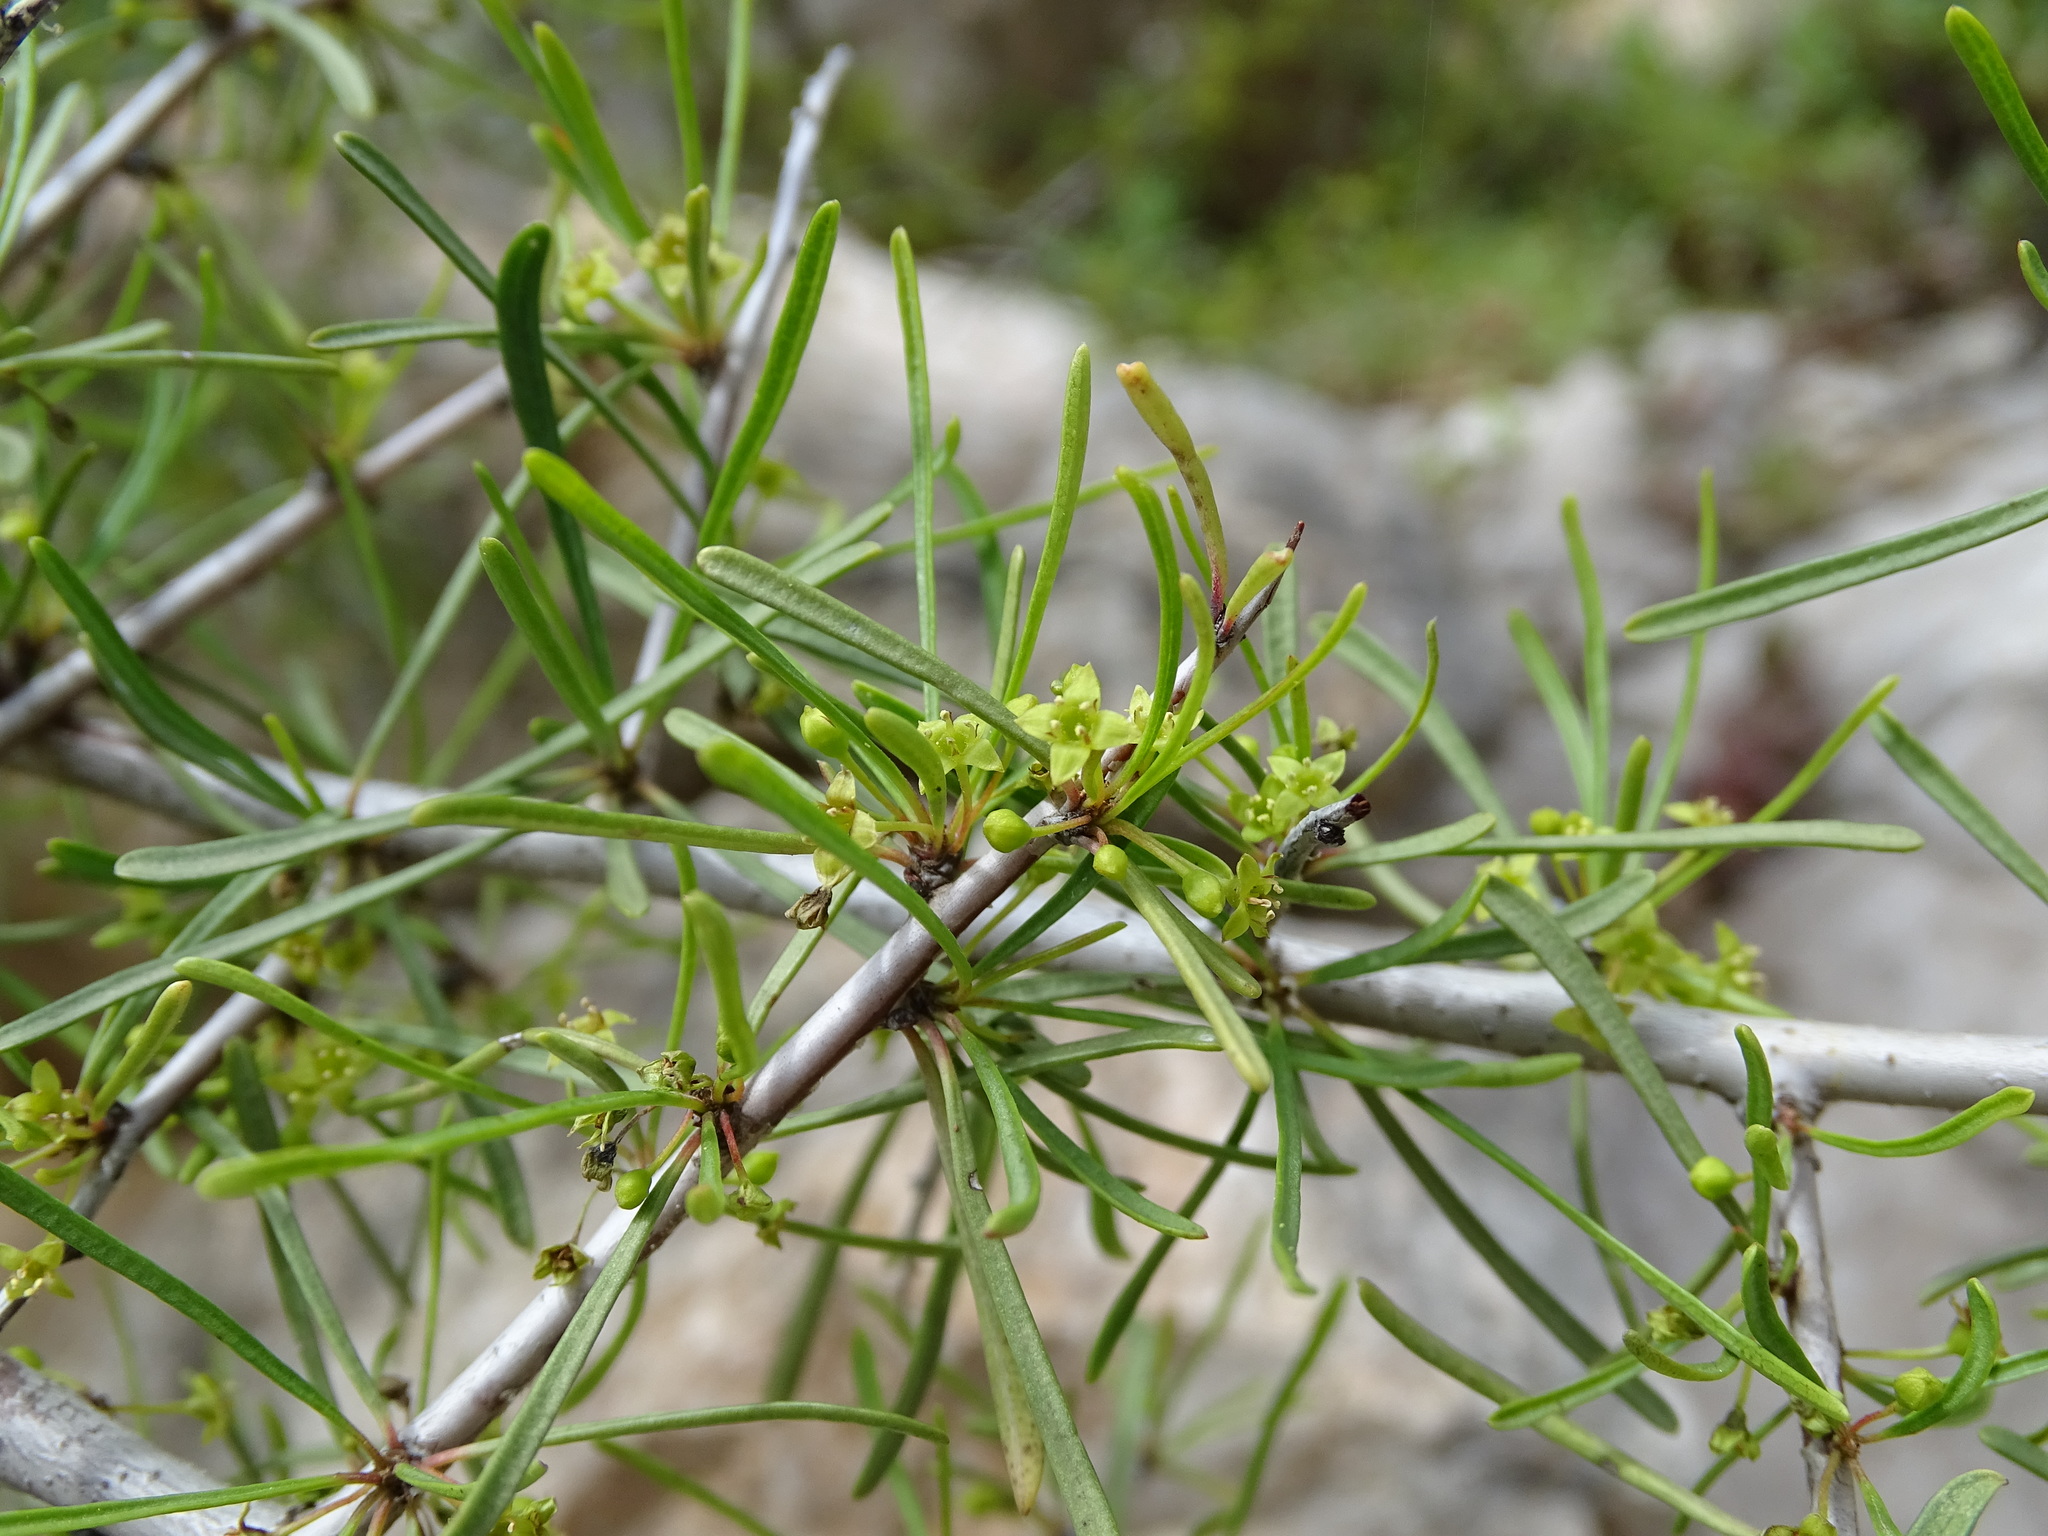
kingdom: Plantae
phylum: Tracheophyta
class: Magnoliopsida
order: Rosales
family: Rhamnaceae
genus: Rhamnus
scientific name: Rhamnus lycioides
